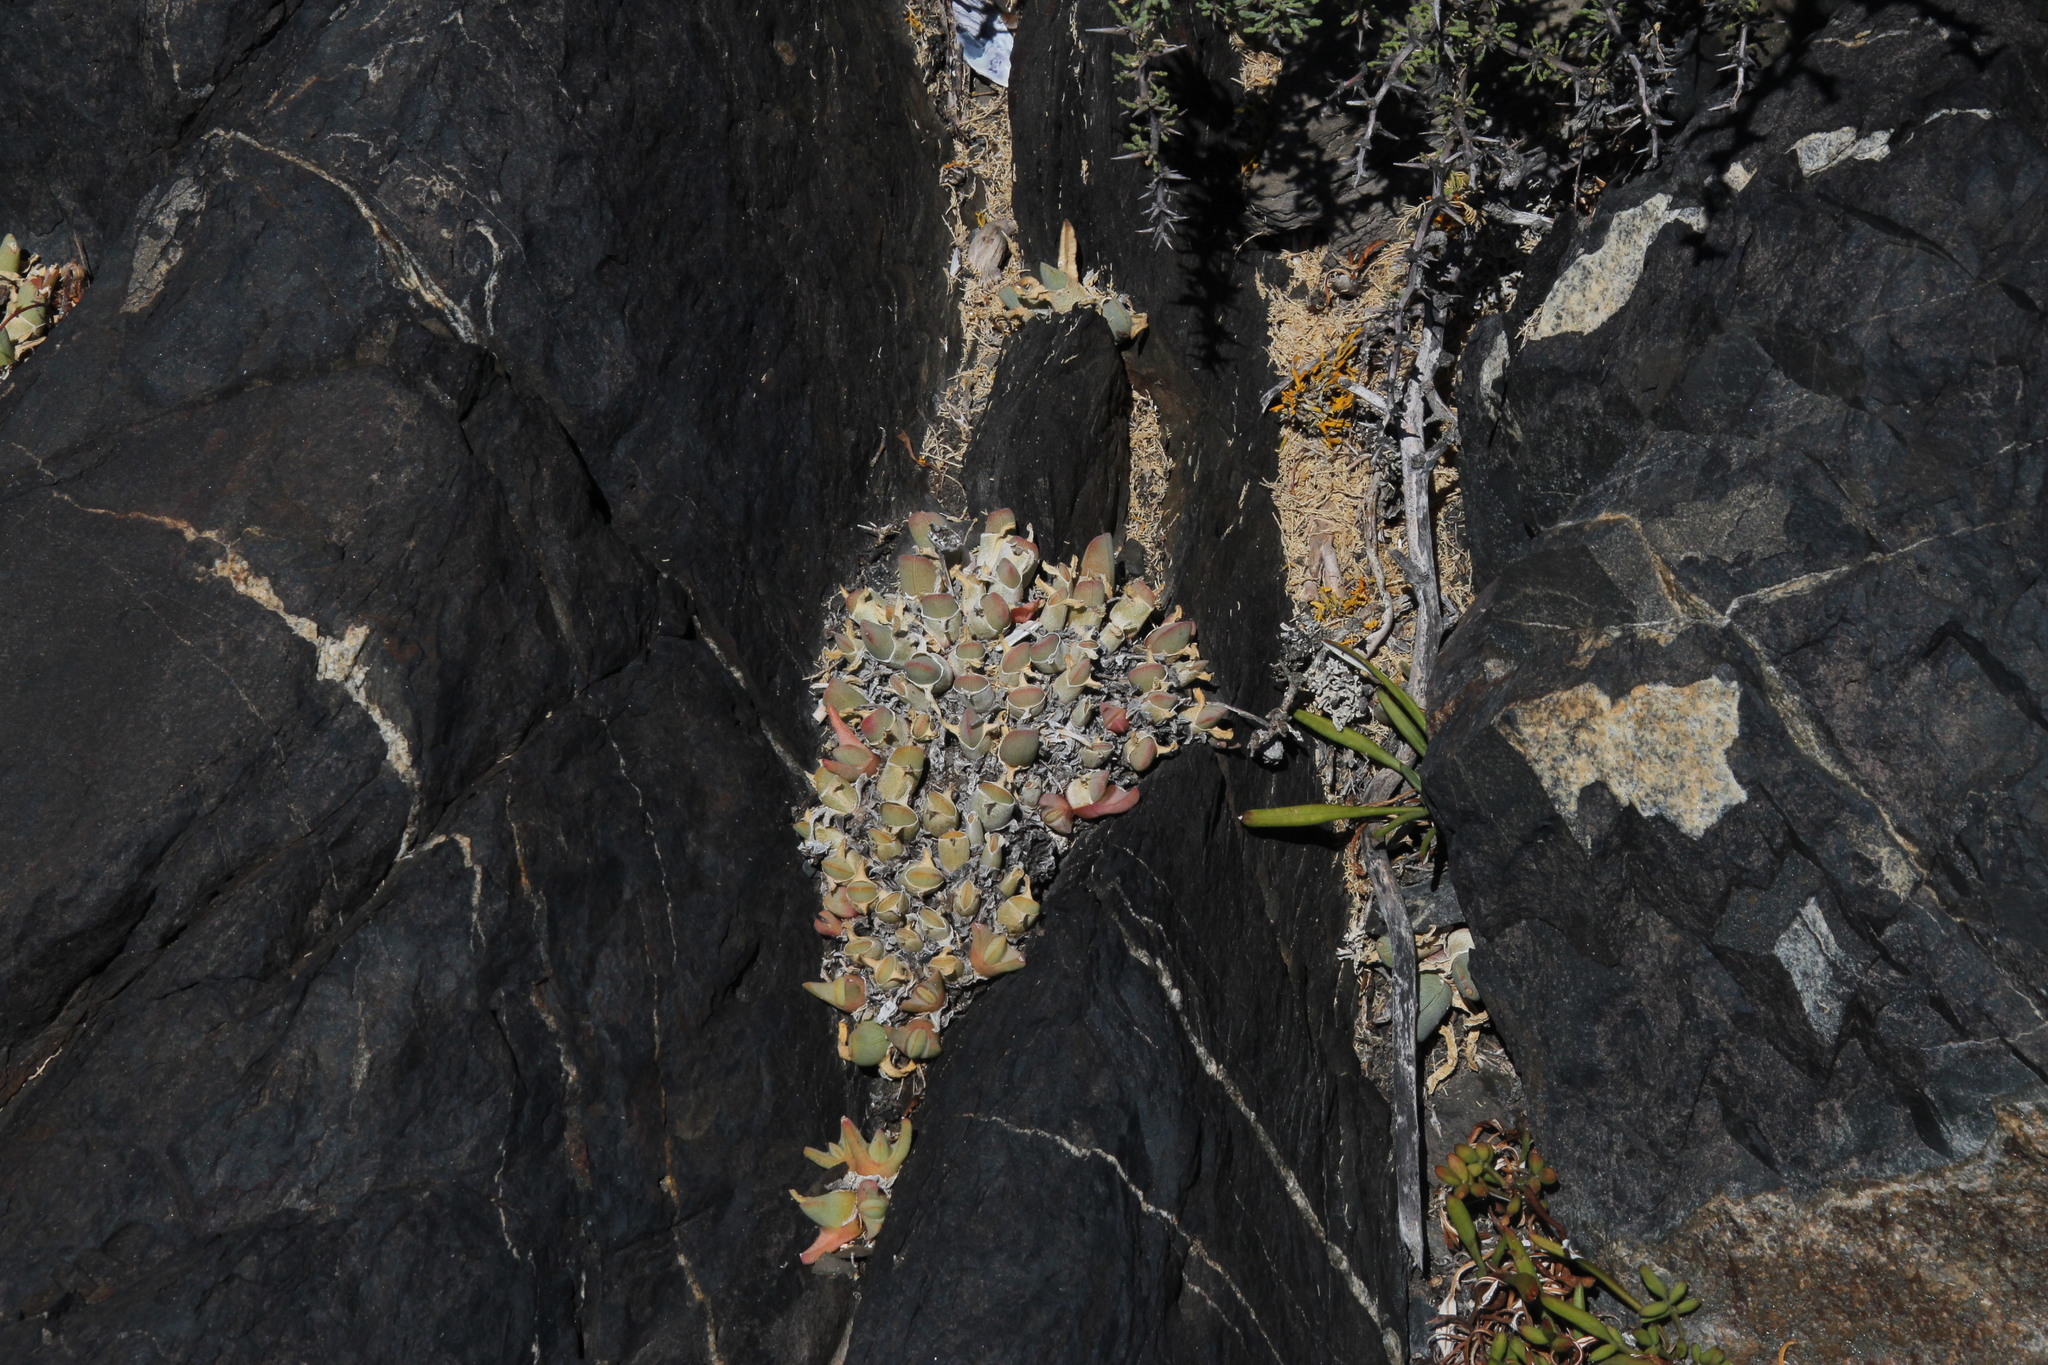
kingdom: Plantae
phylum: Tracheophyta
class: Magnoliopsida
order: Caryophyllales
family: Aizoaceae
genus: Cheiridopsis
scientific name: Cheiridopsis rostrata
